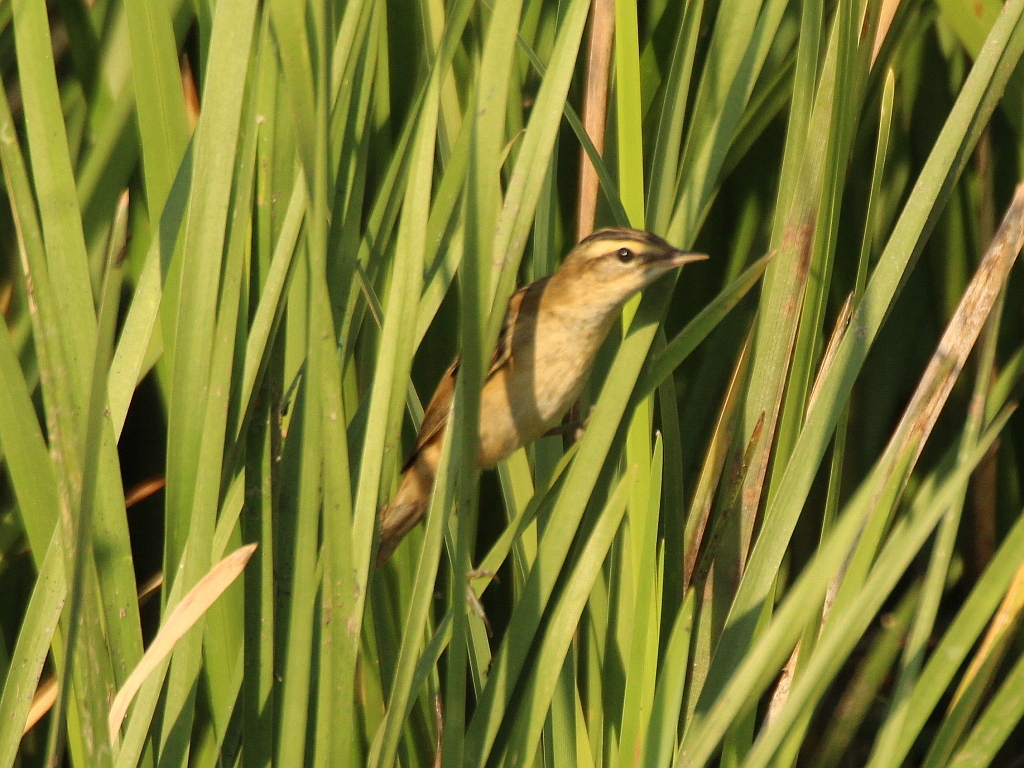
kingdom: Animalia
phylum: Chordata
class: Aves
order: Passeriformes
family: Acrocephalidae
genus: Acrocephalus
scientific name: Acrocephalus schoenobaenus
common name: Sedge warbler
